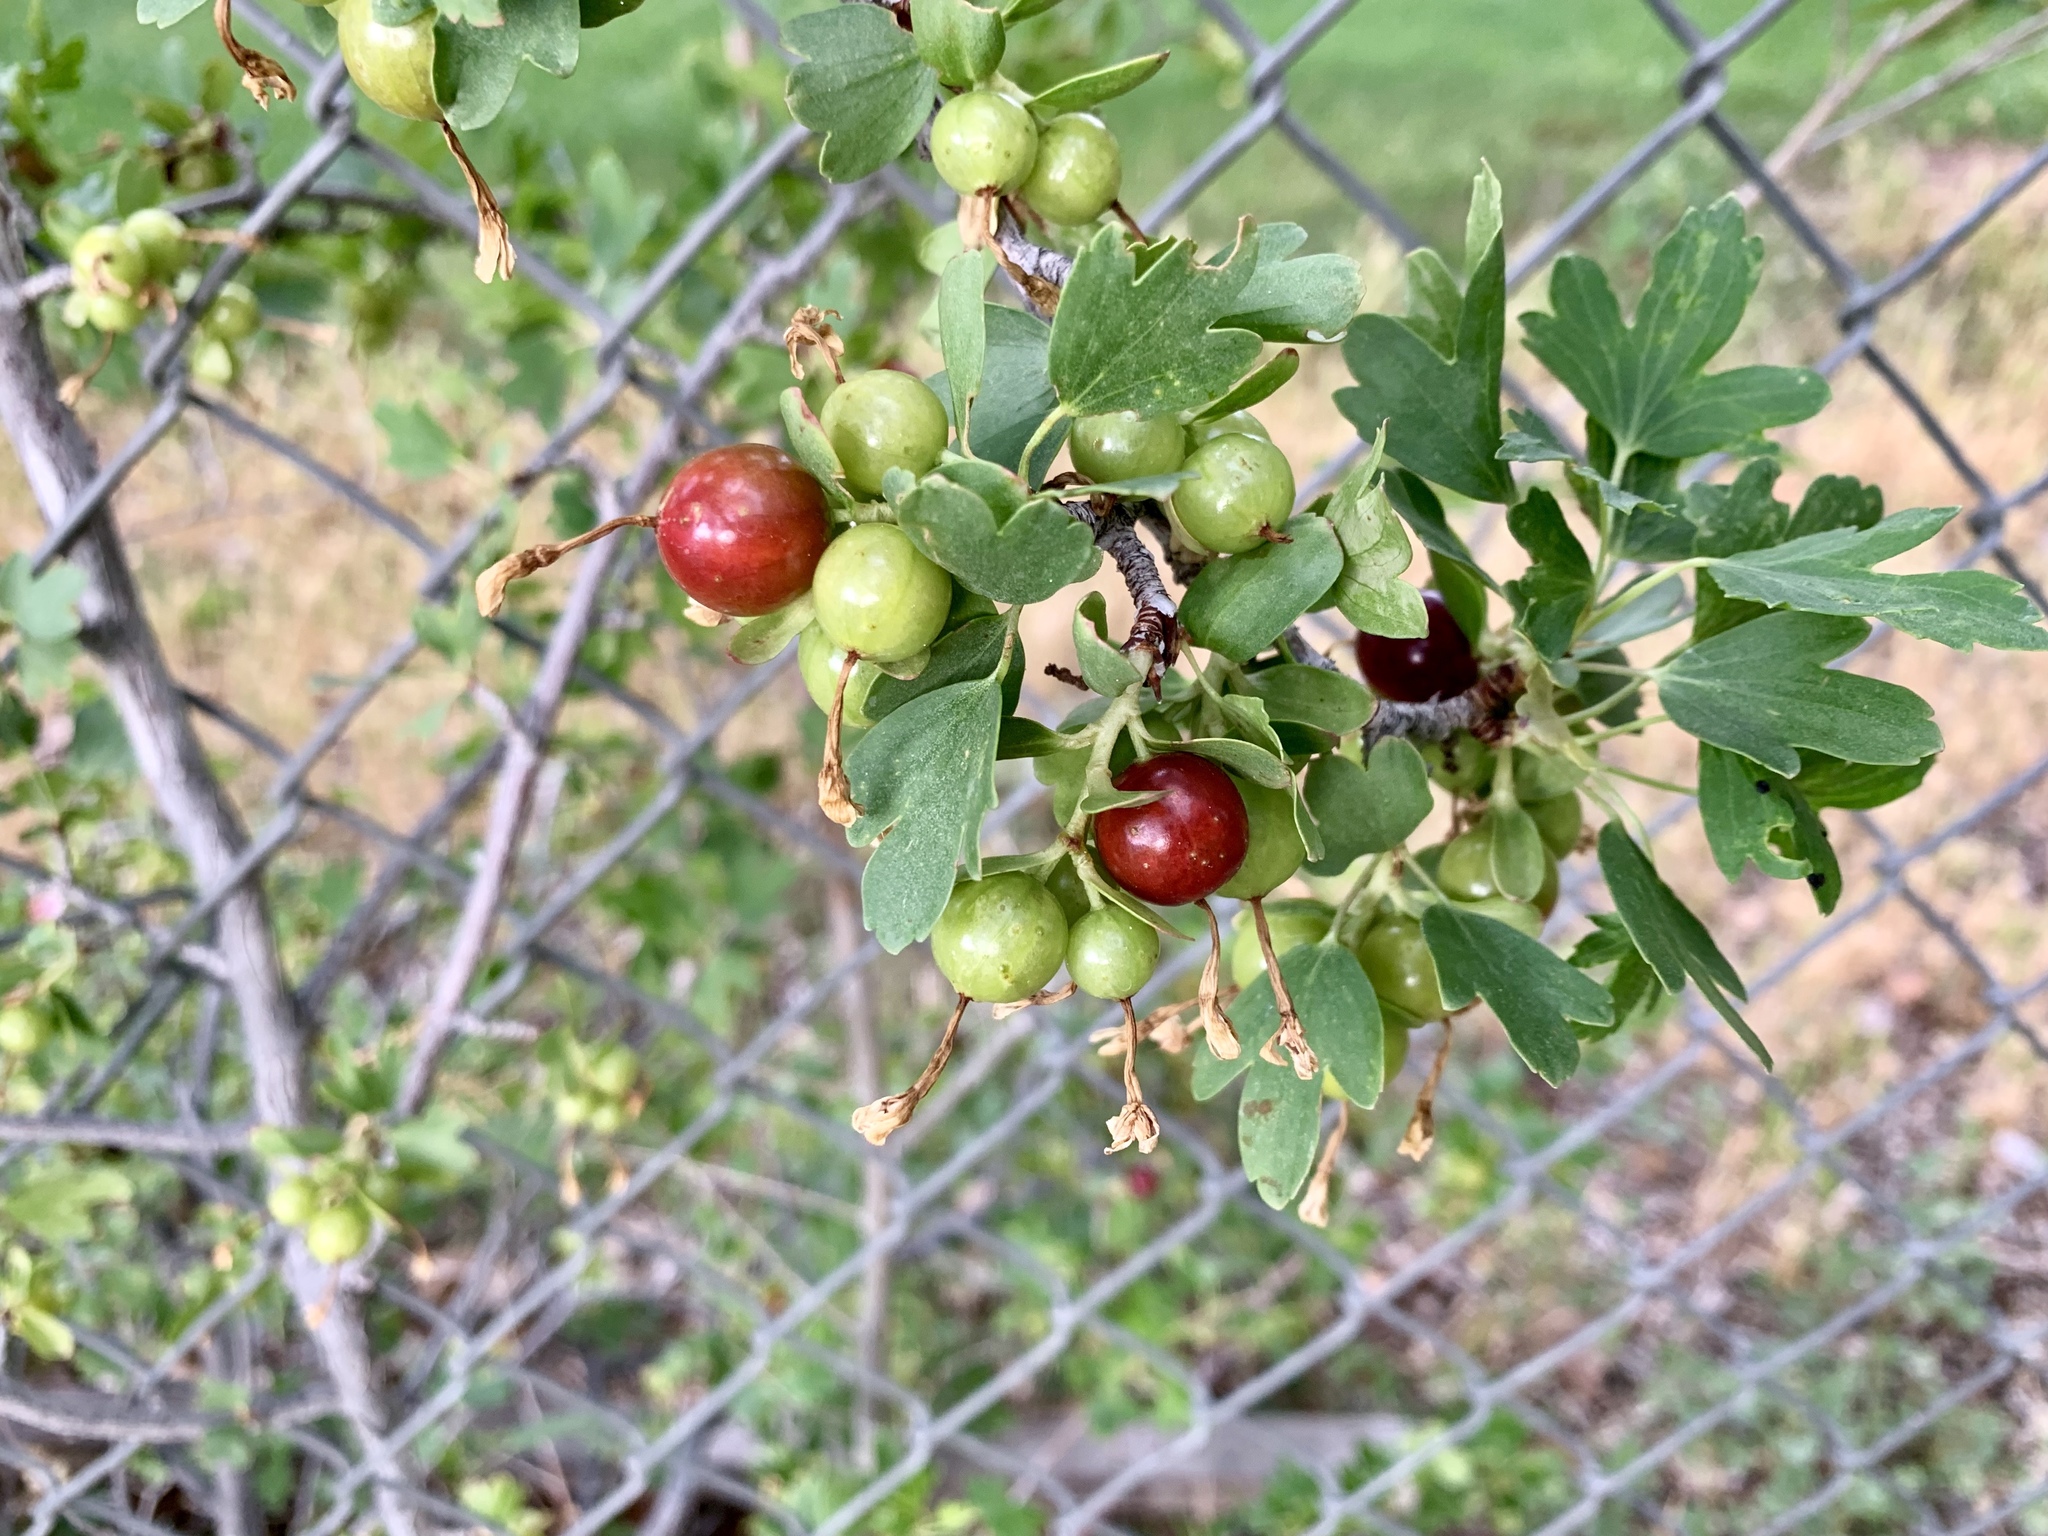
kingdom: Plantae
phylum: Tracheophyta
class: Magnoliopsida
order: Saxifragales
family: Grossulariaceae
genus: Ribes
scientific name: Ribes aureum
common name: Golden currant
